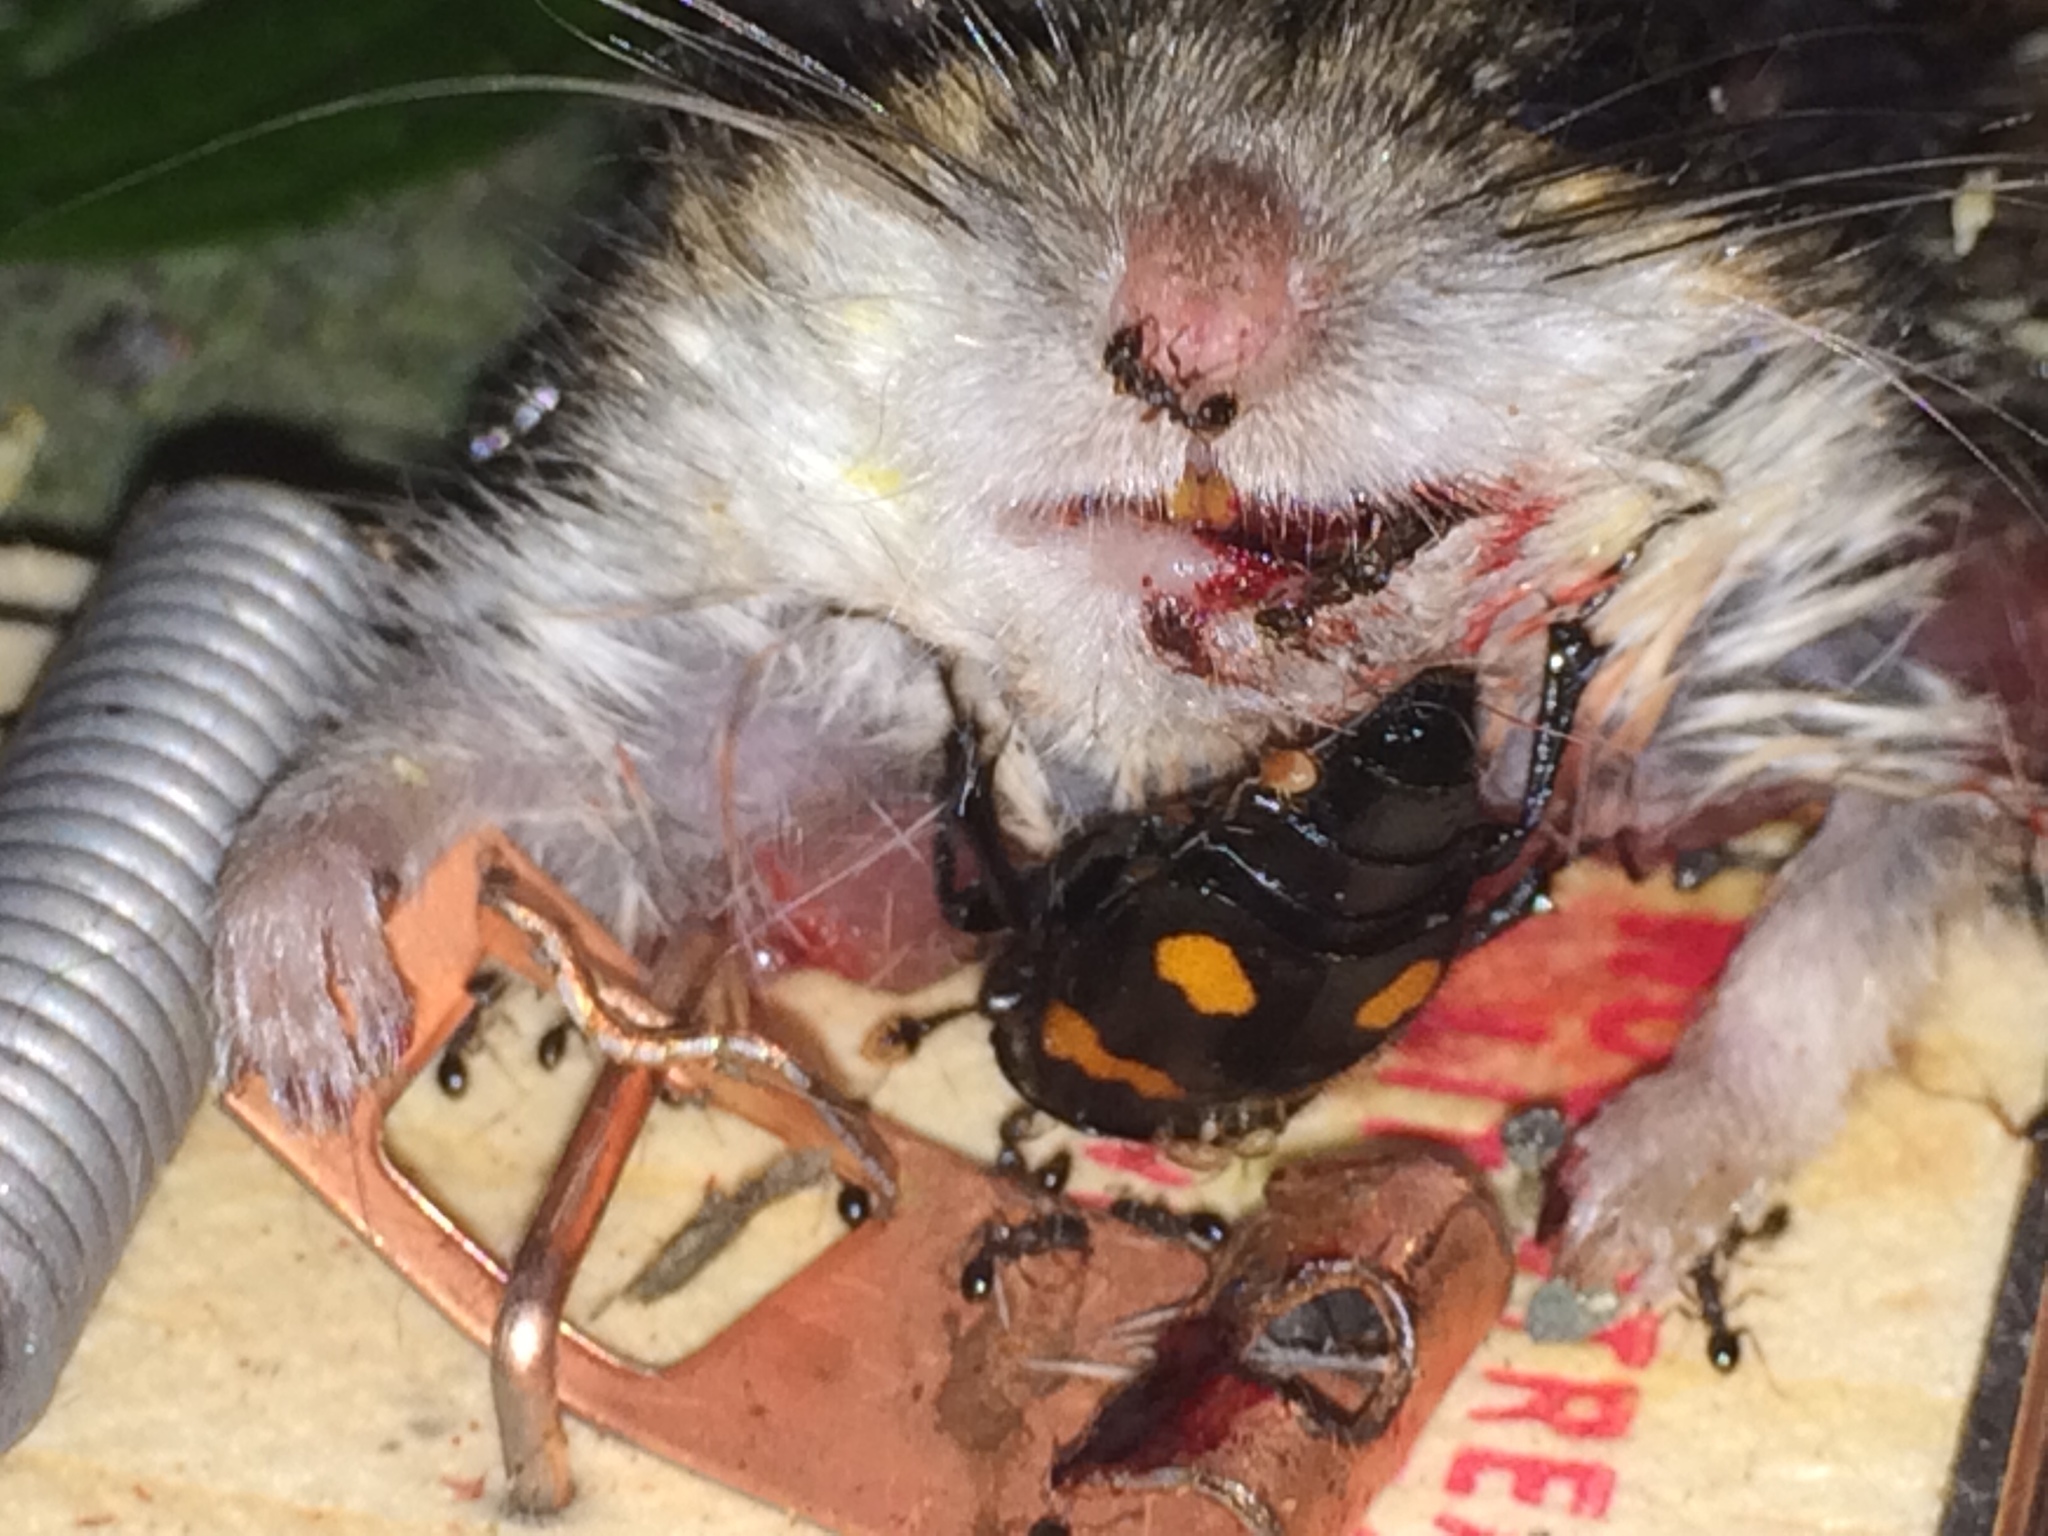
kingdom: Animalia
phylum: Arthropoda
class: Insecta
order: Coleoptera
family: Staphylinidae
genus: Nicrophorus
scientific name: Nicrophorus orbicollis
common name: Roundneck sexton beetle
